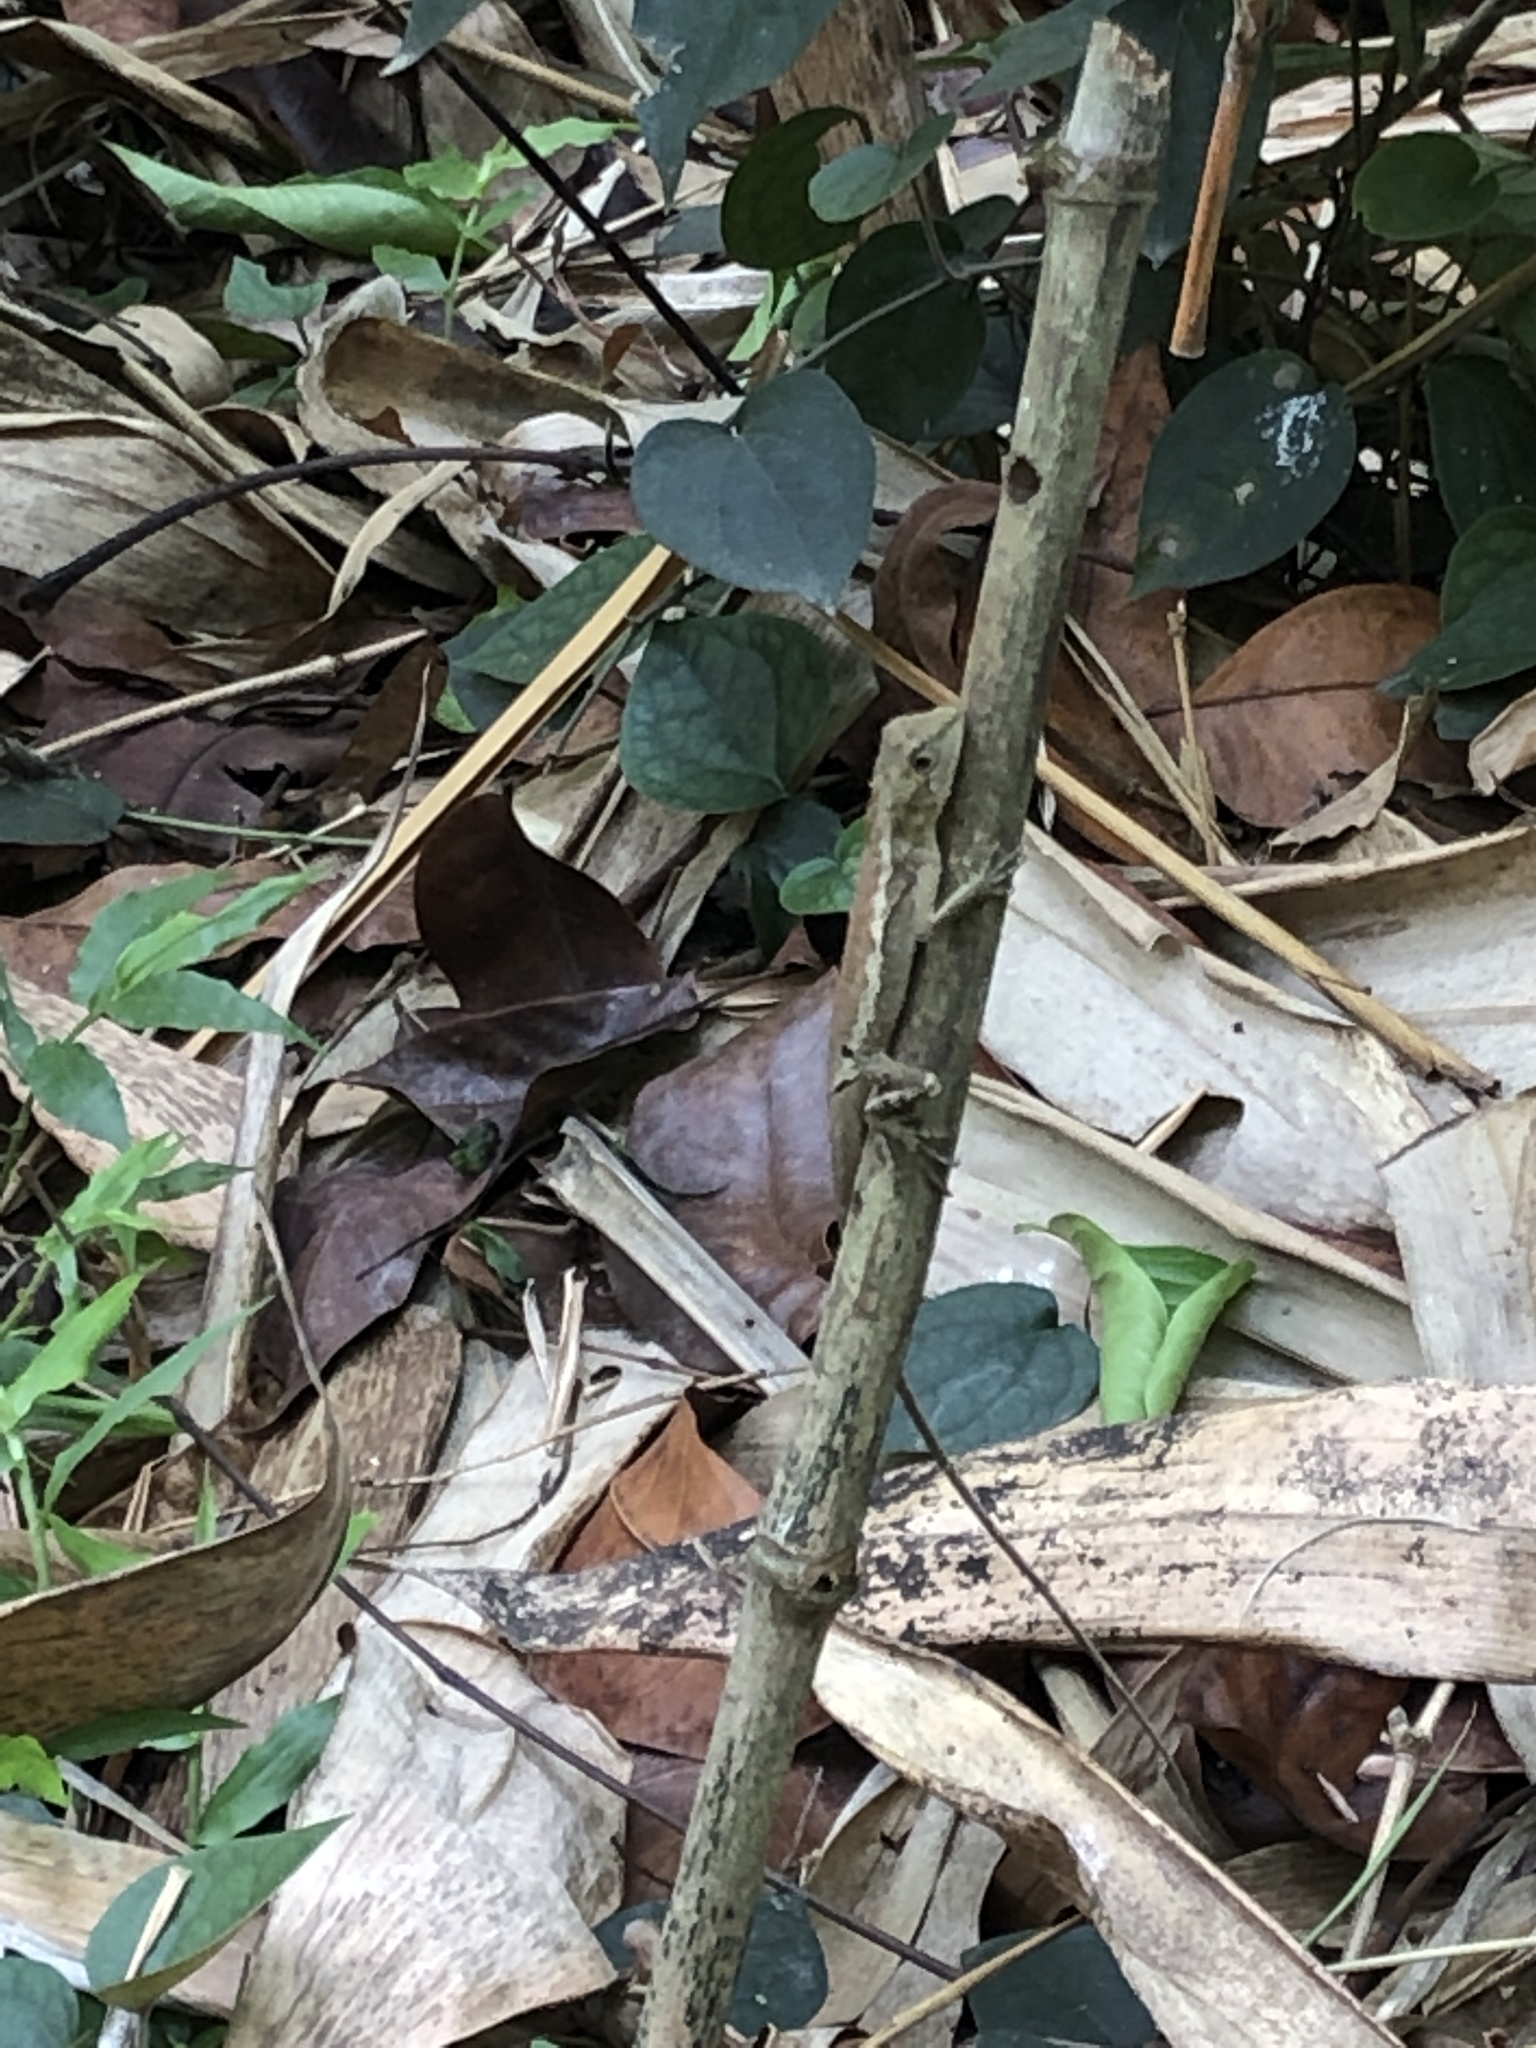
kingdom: Animalia
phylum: Chordata
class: Squamata
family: Agamidae
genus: Diploderma
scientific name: Diploderma swinhonis
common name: Taiwan japalure
